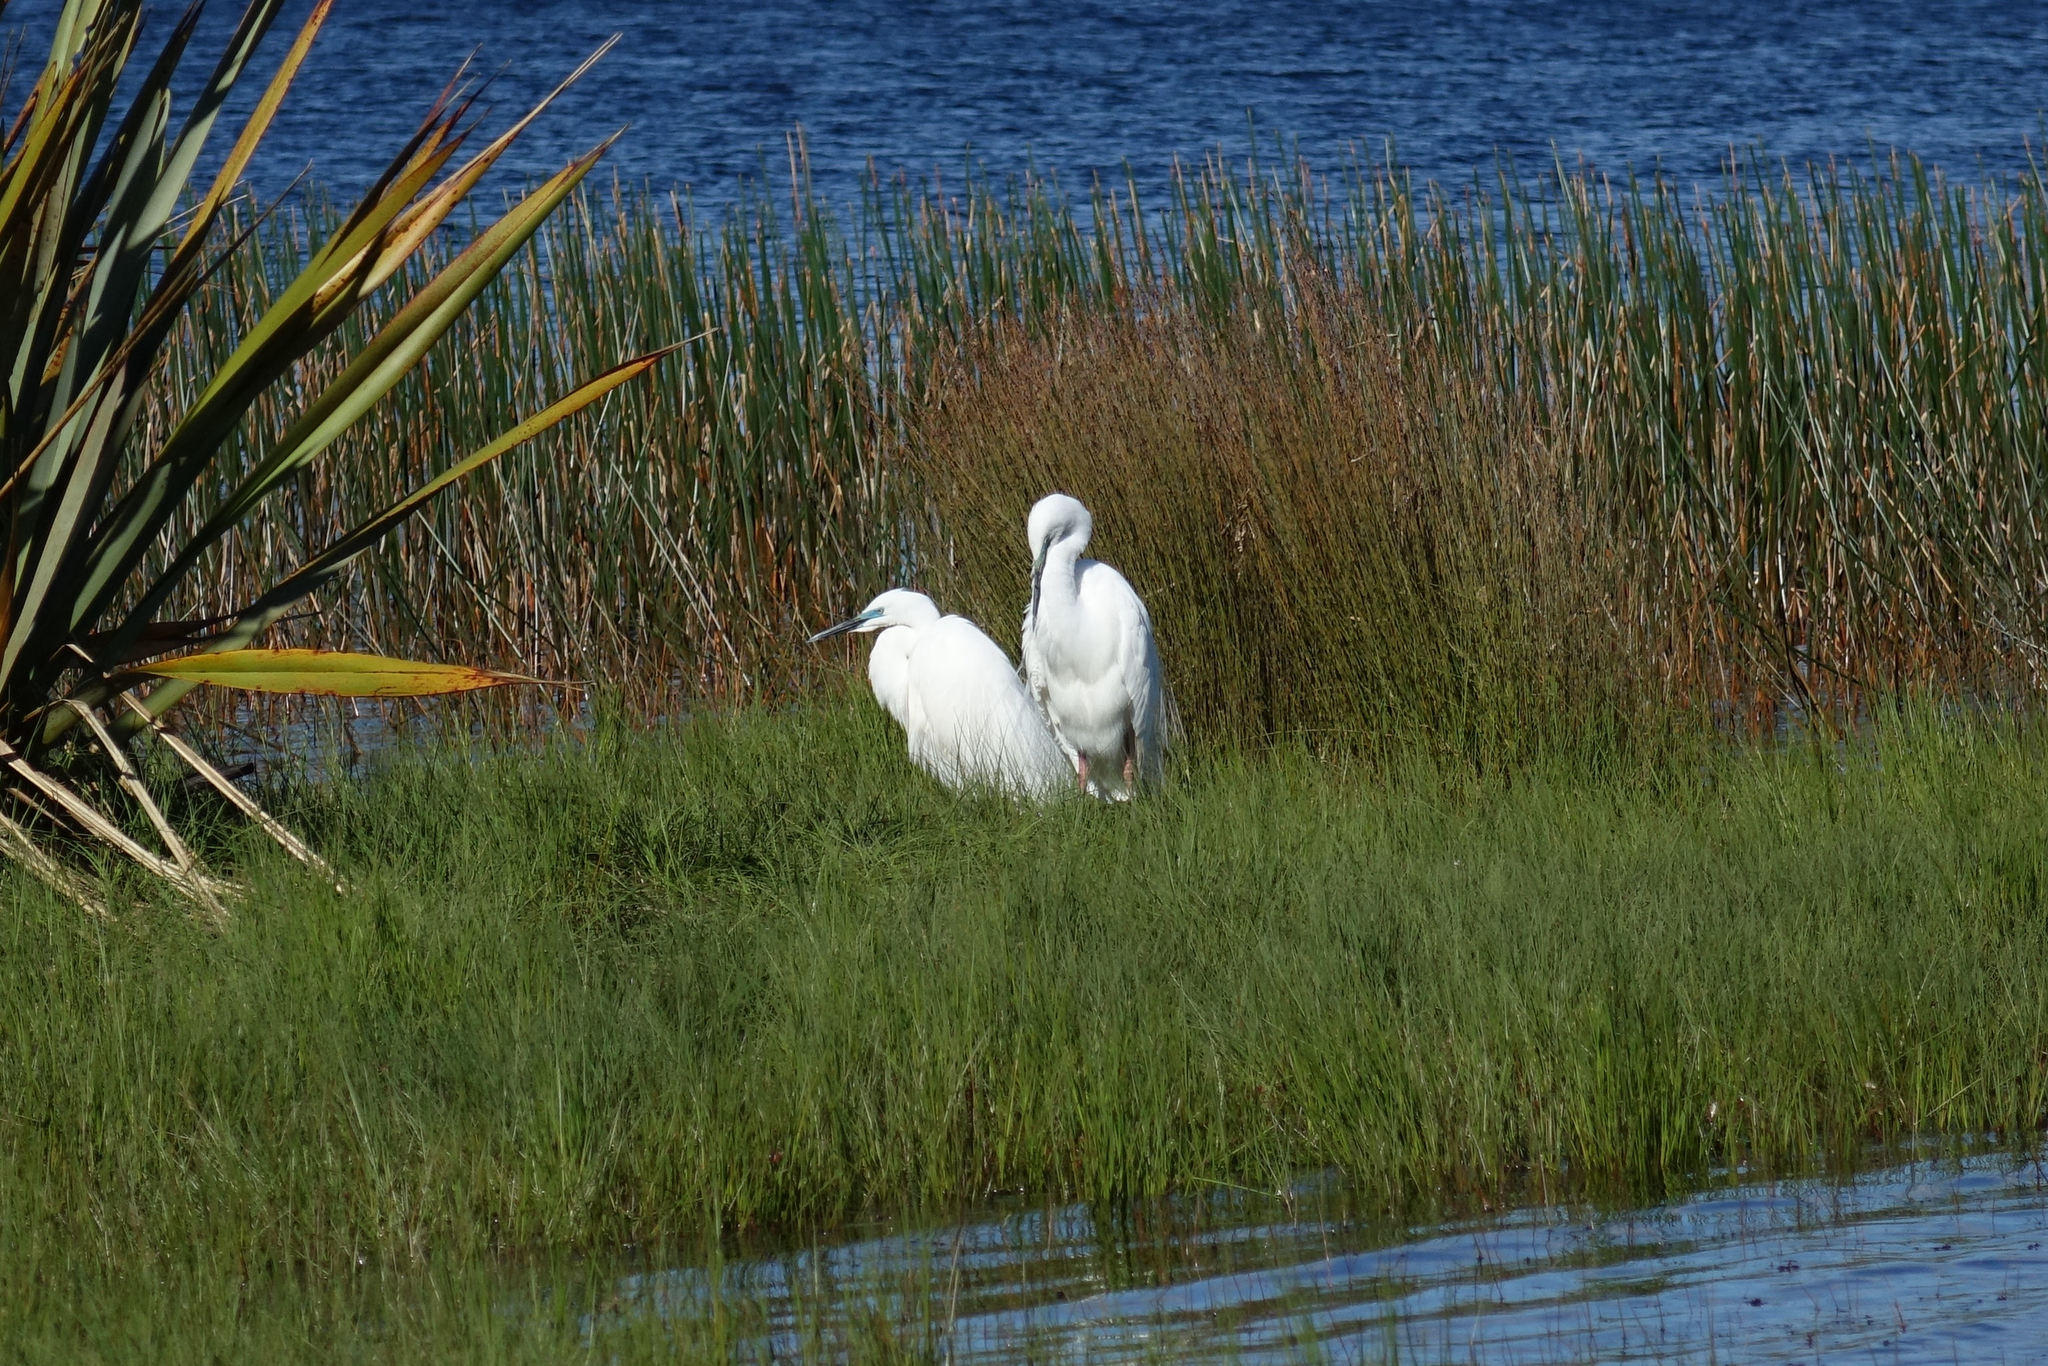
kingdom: Animalia
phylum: Chordata
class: Aves
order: Pelecaniformes
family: Ardeidae
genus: Ardea
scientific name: Ardea modesta
